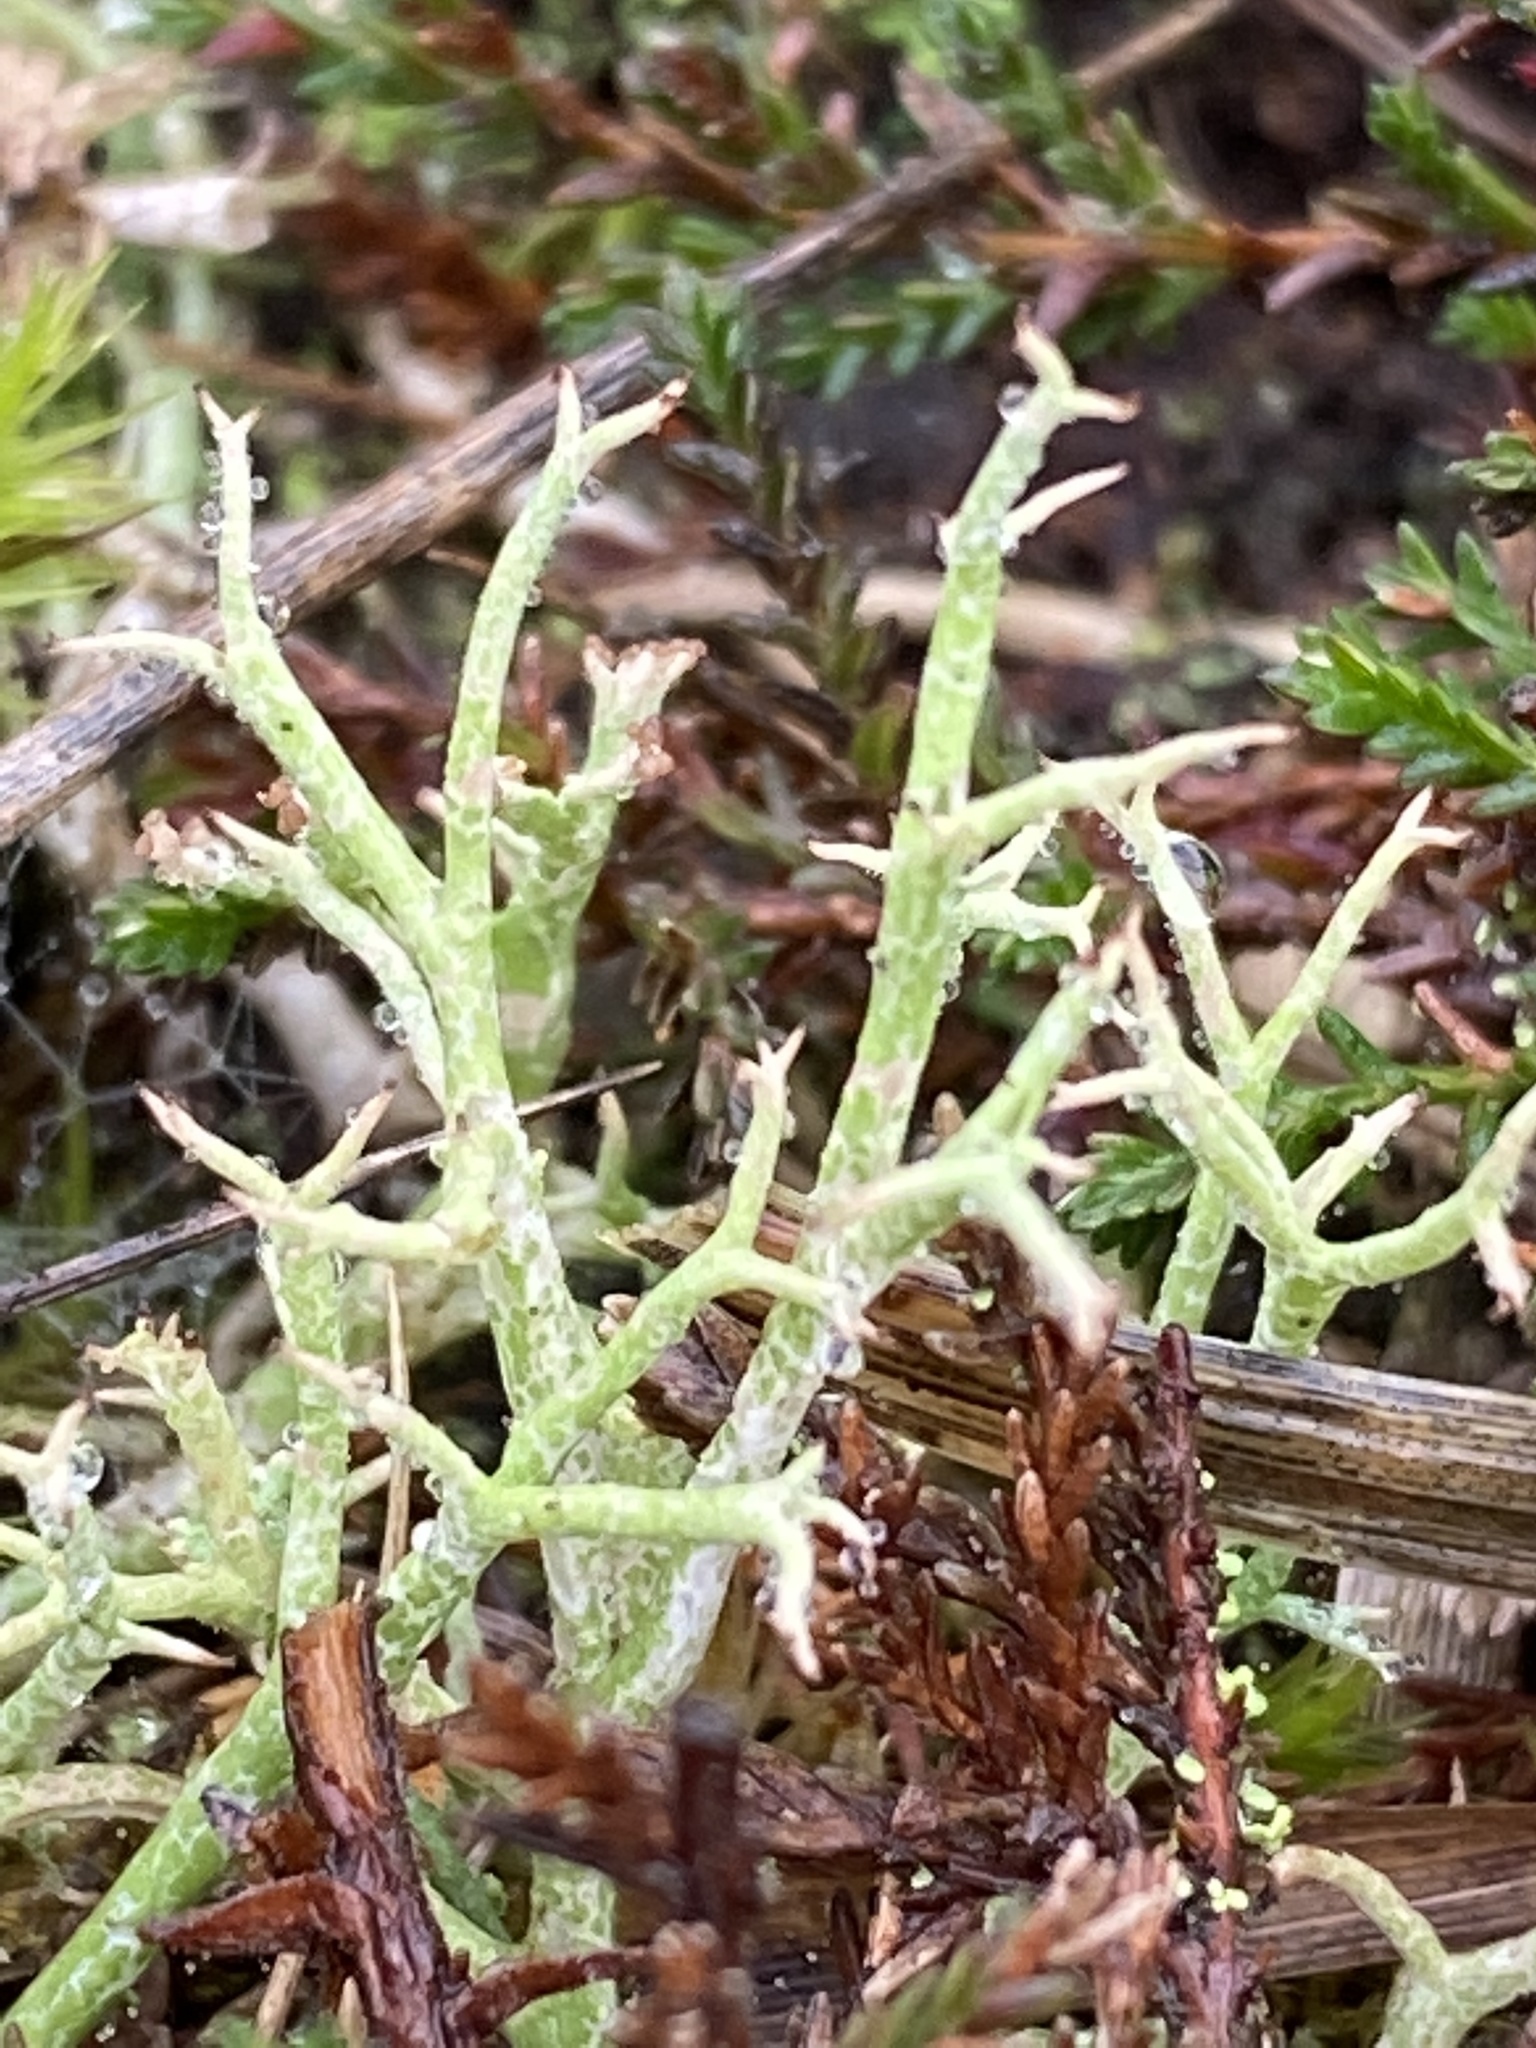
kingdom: Fungi
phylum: Ascomycota
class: Lecanoromycetes
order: Lecanorales
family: Cladoniaceae
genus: Cladonia
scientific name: Cladonia furcata
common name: Many-forked cladonia
